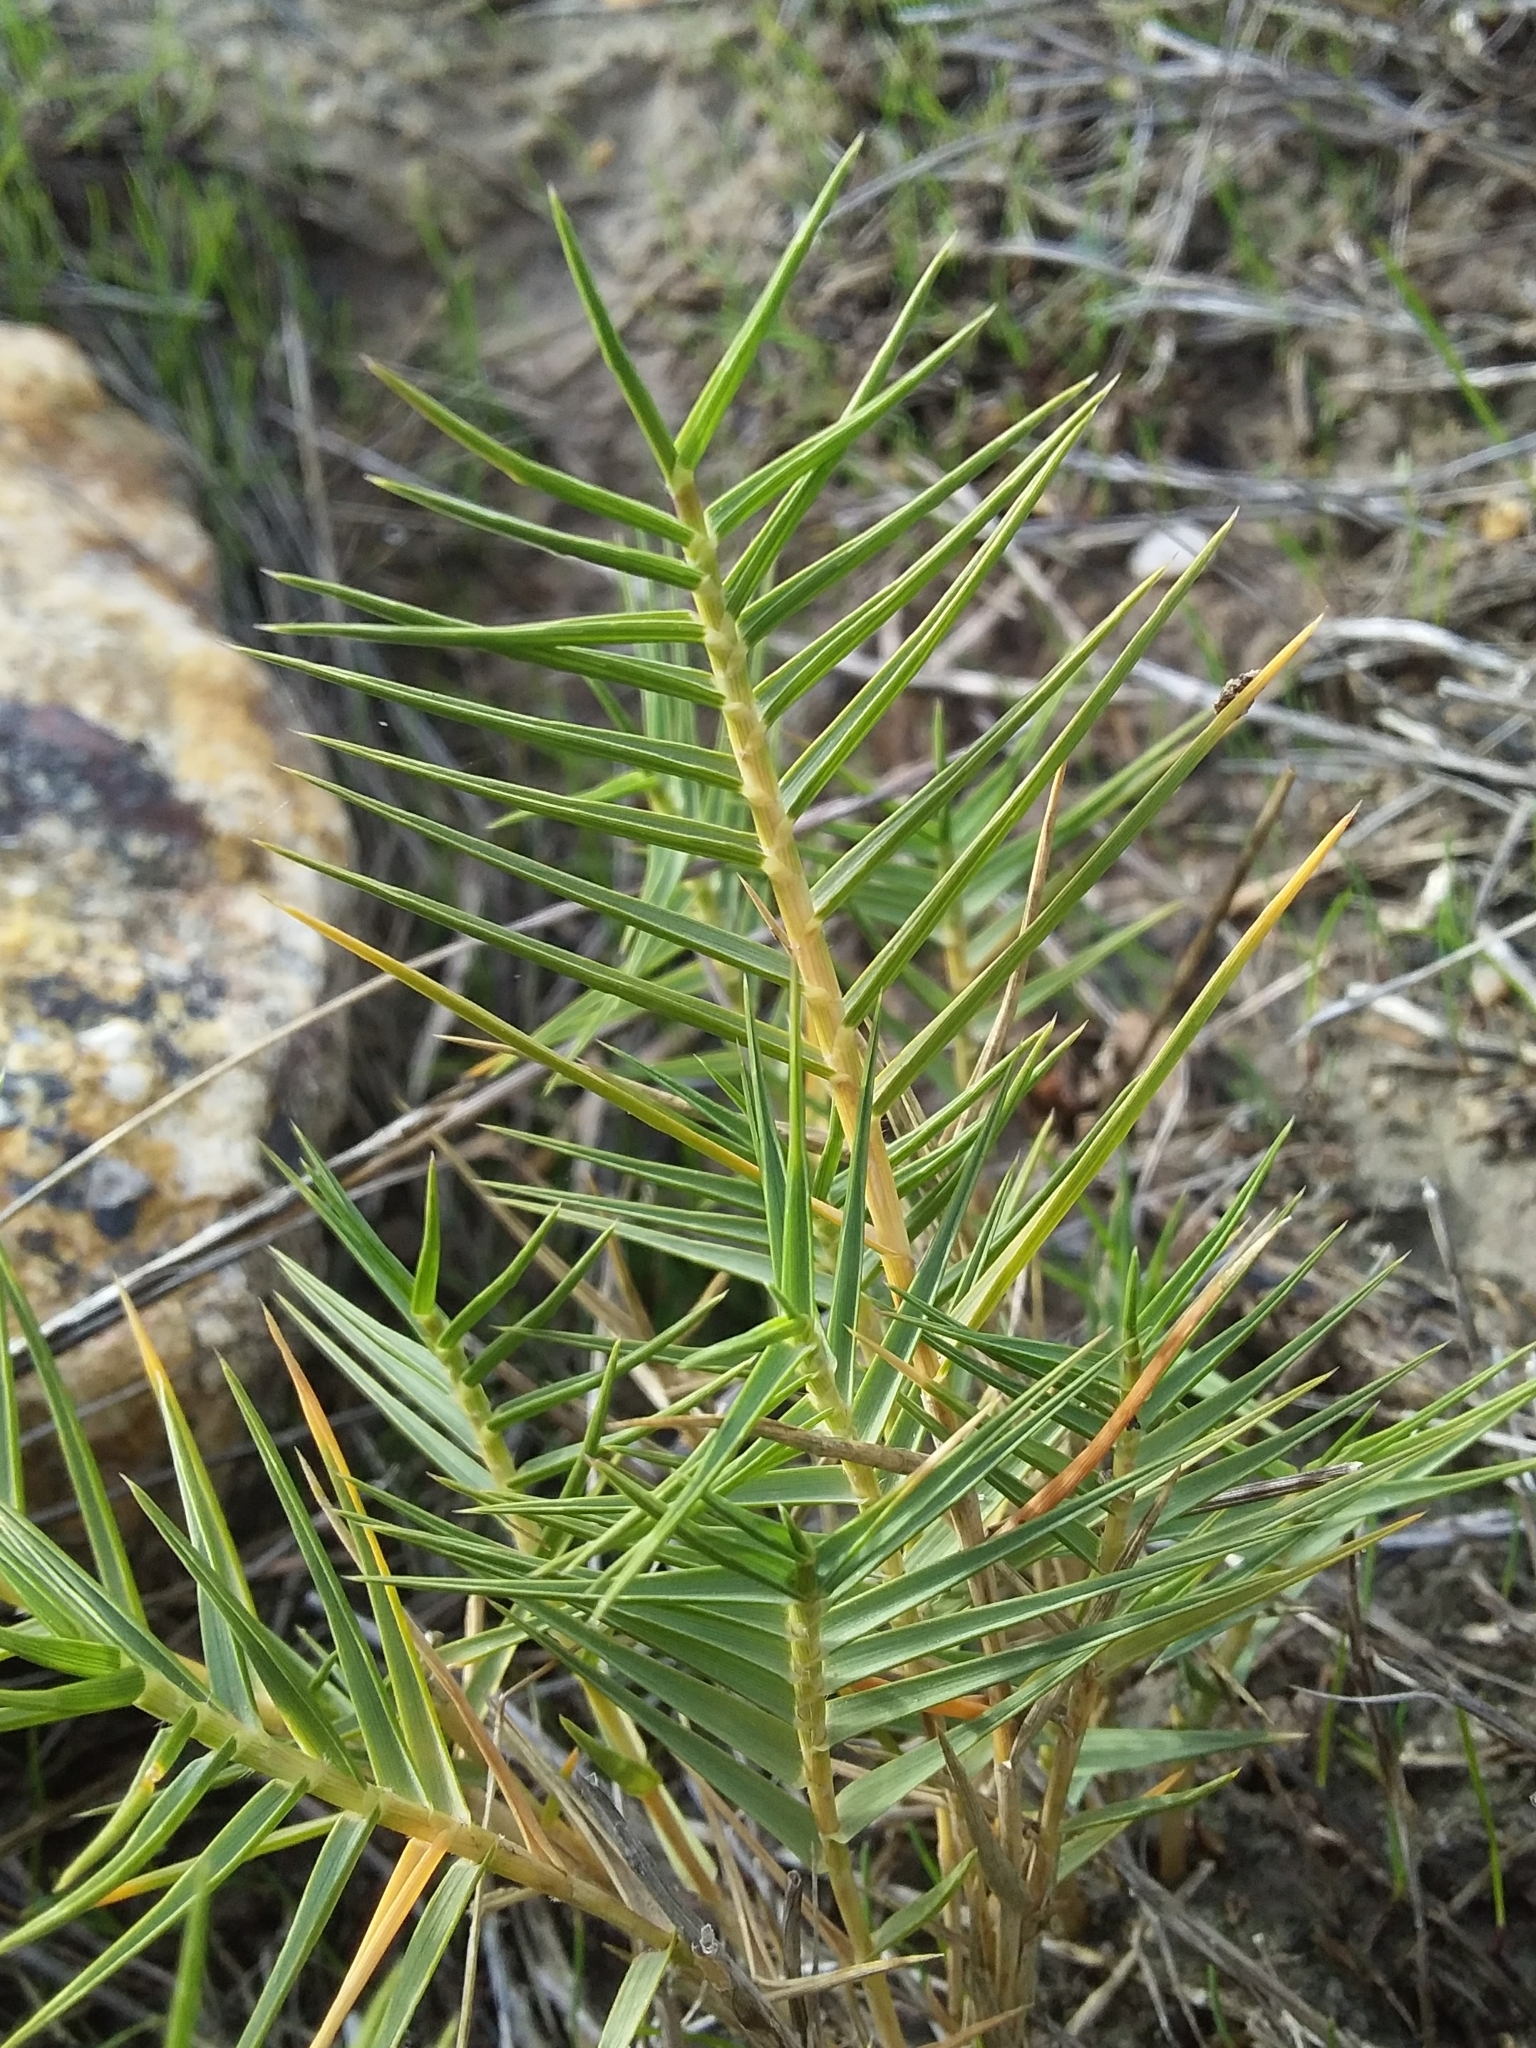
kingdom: Plantae
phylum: Tracheophyta
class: Liliopsida
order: Poales
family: Poaceae
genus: Distichlis
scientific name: Distichlis distichophylla
